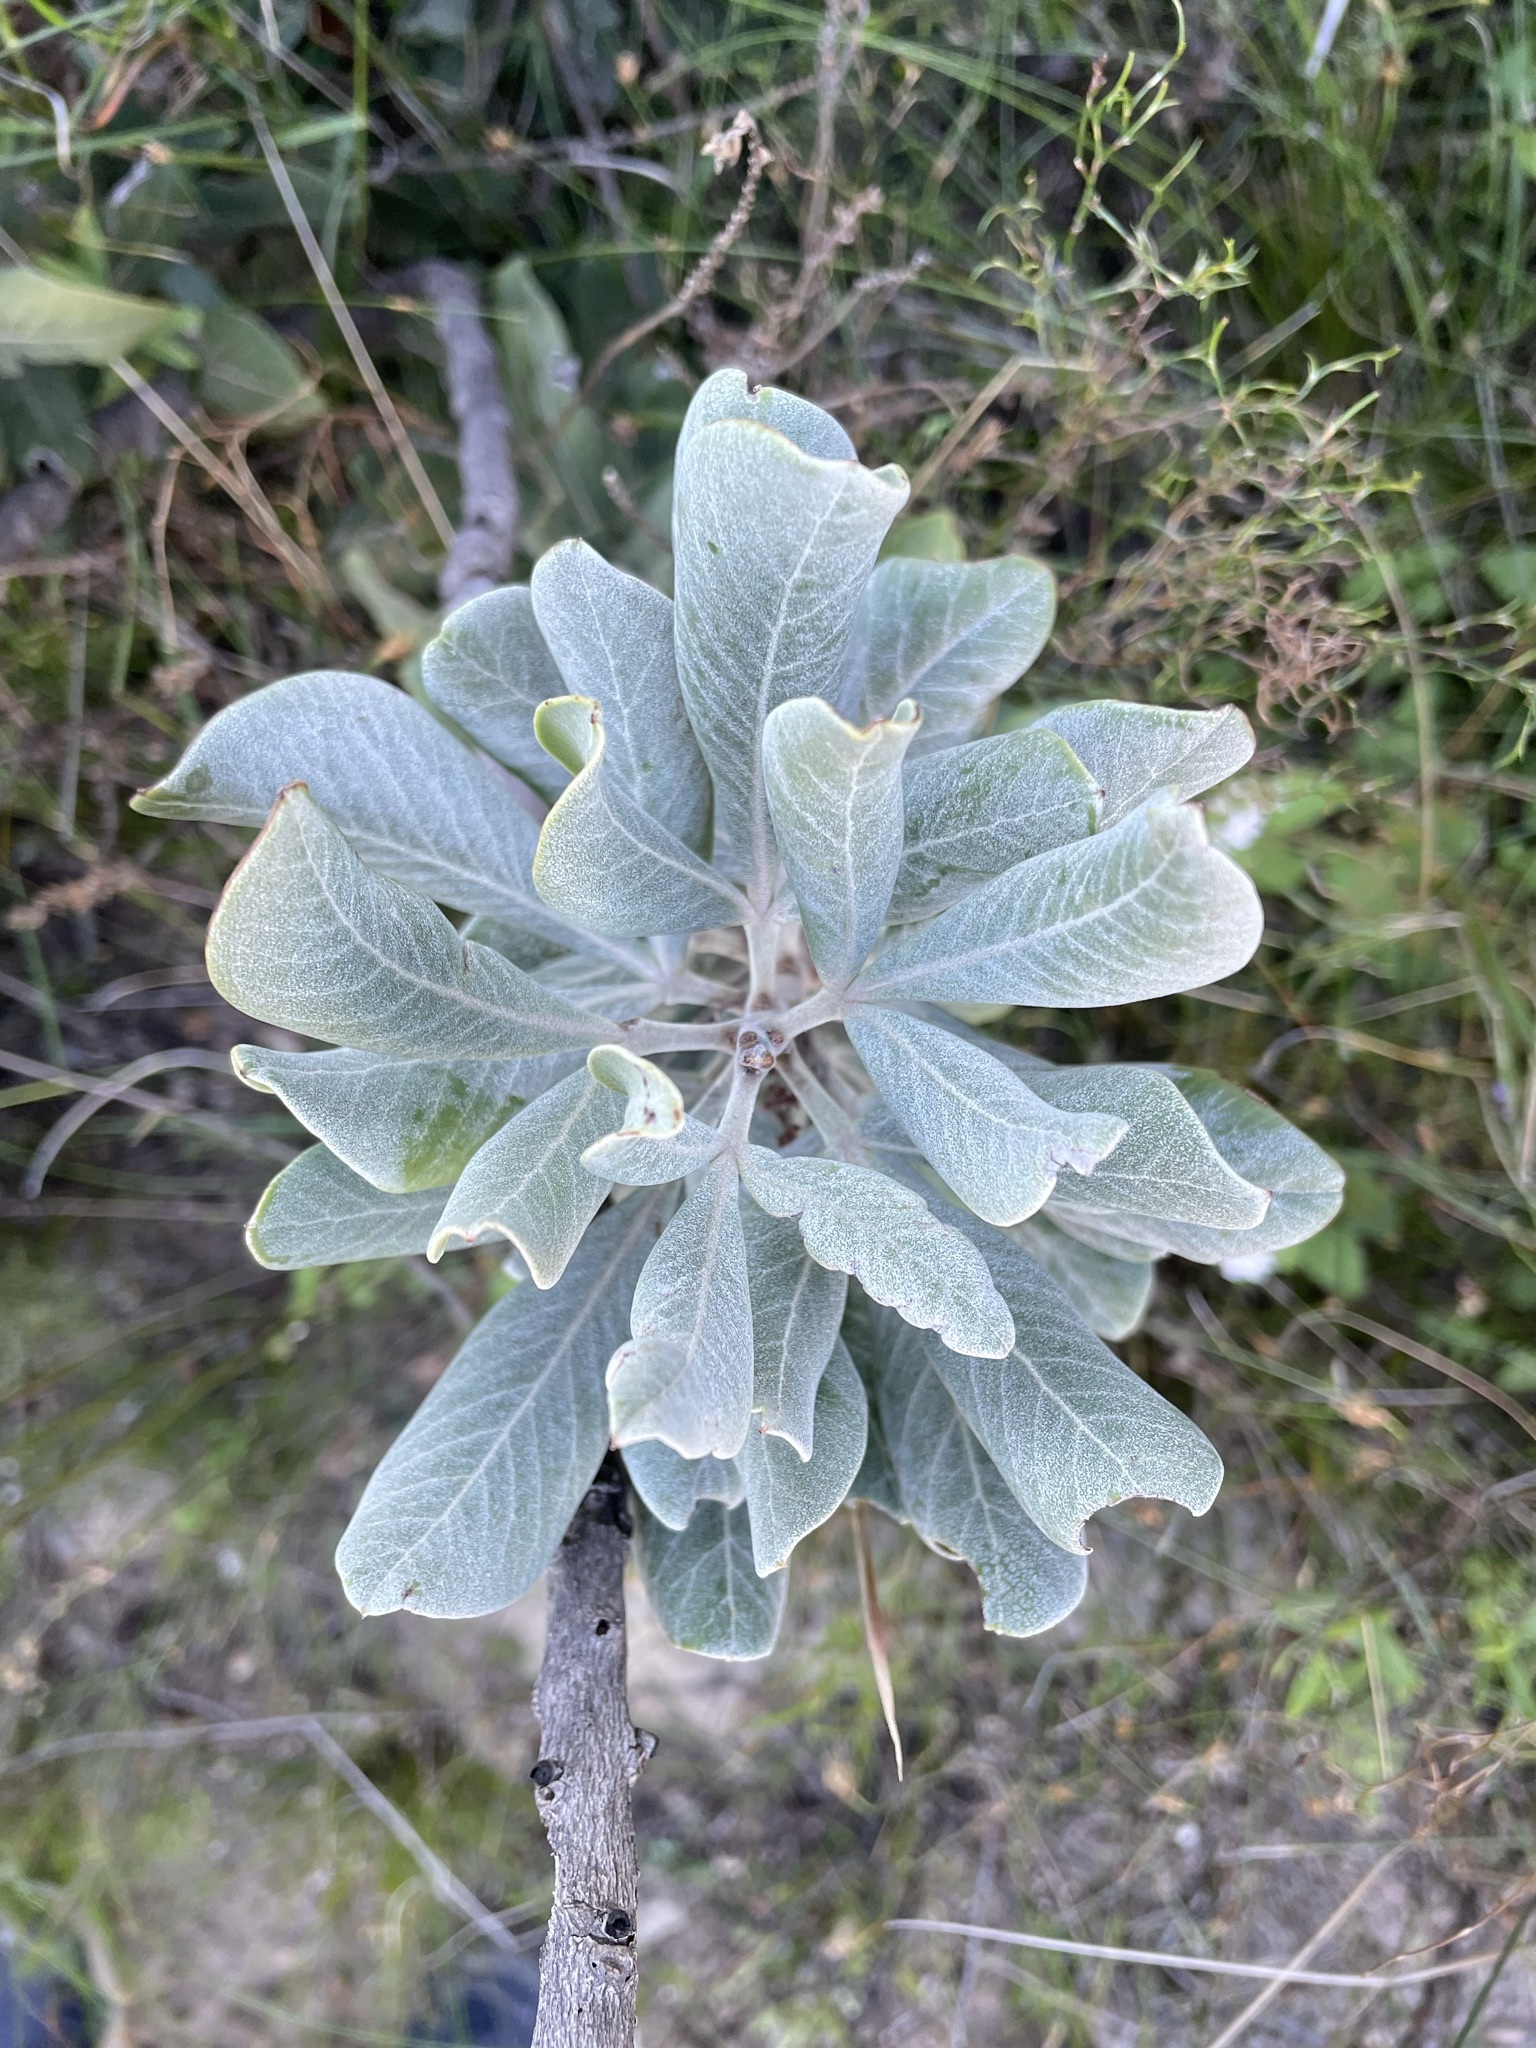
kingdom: Plantae
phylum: Tracheophyta
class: Magnoliopsida
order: Sapindales
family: Anacardiaceae
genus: Searsia
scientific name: Searsia scytophylla
